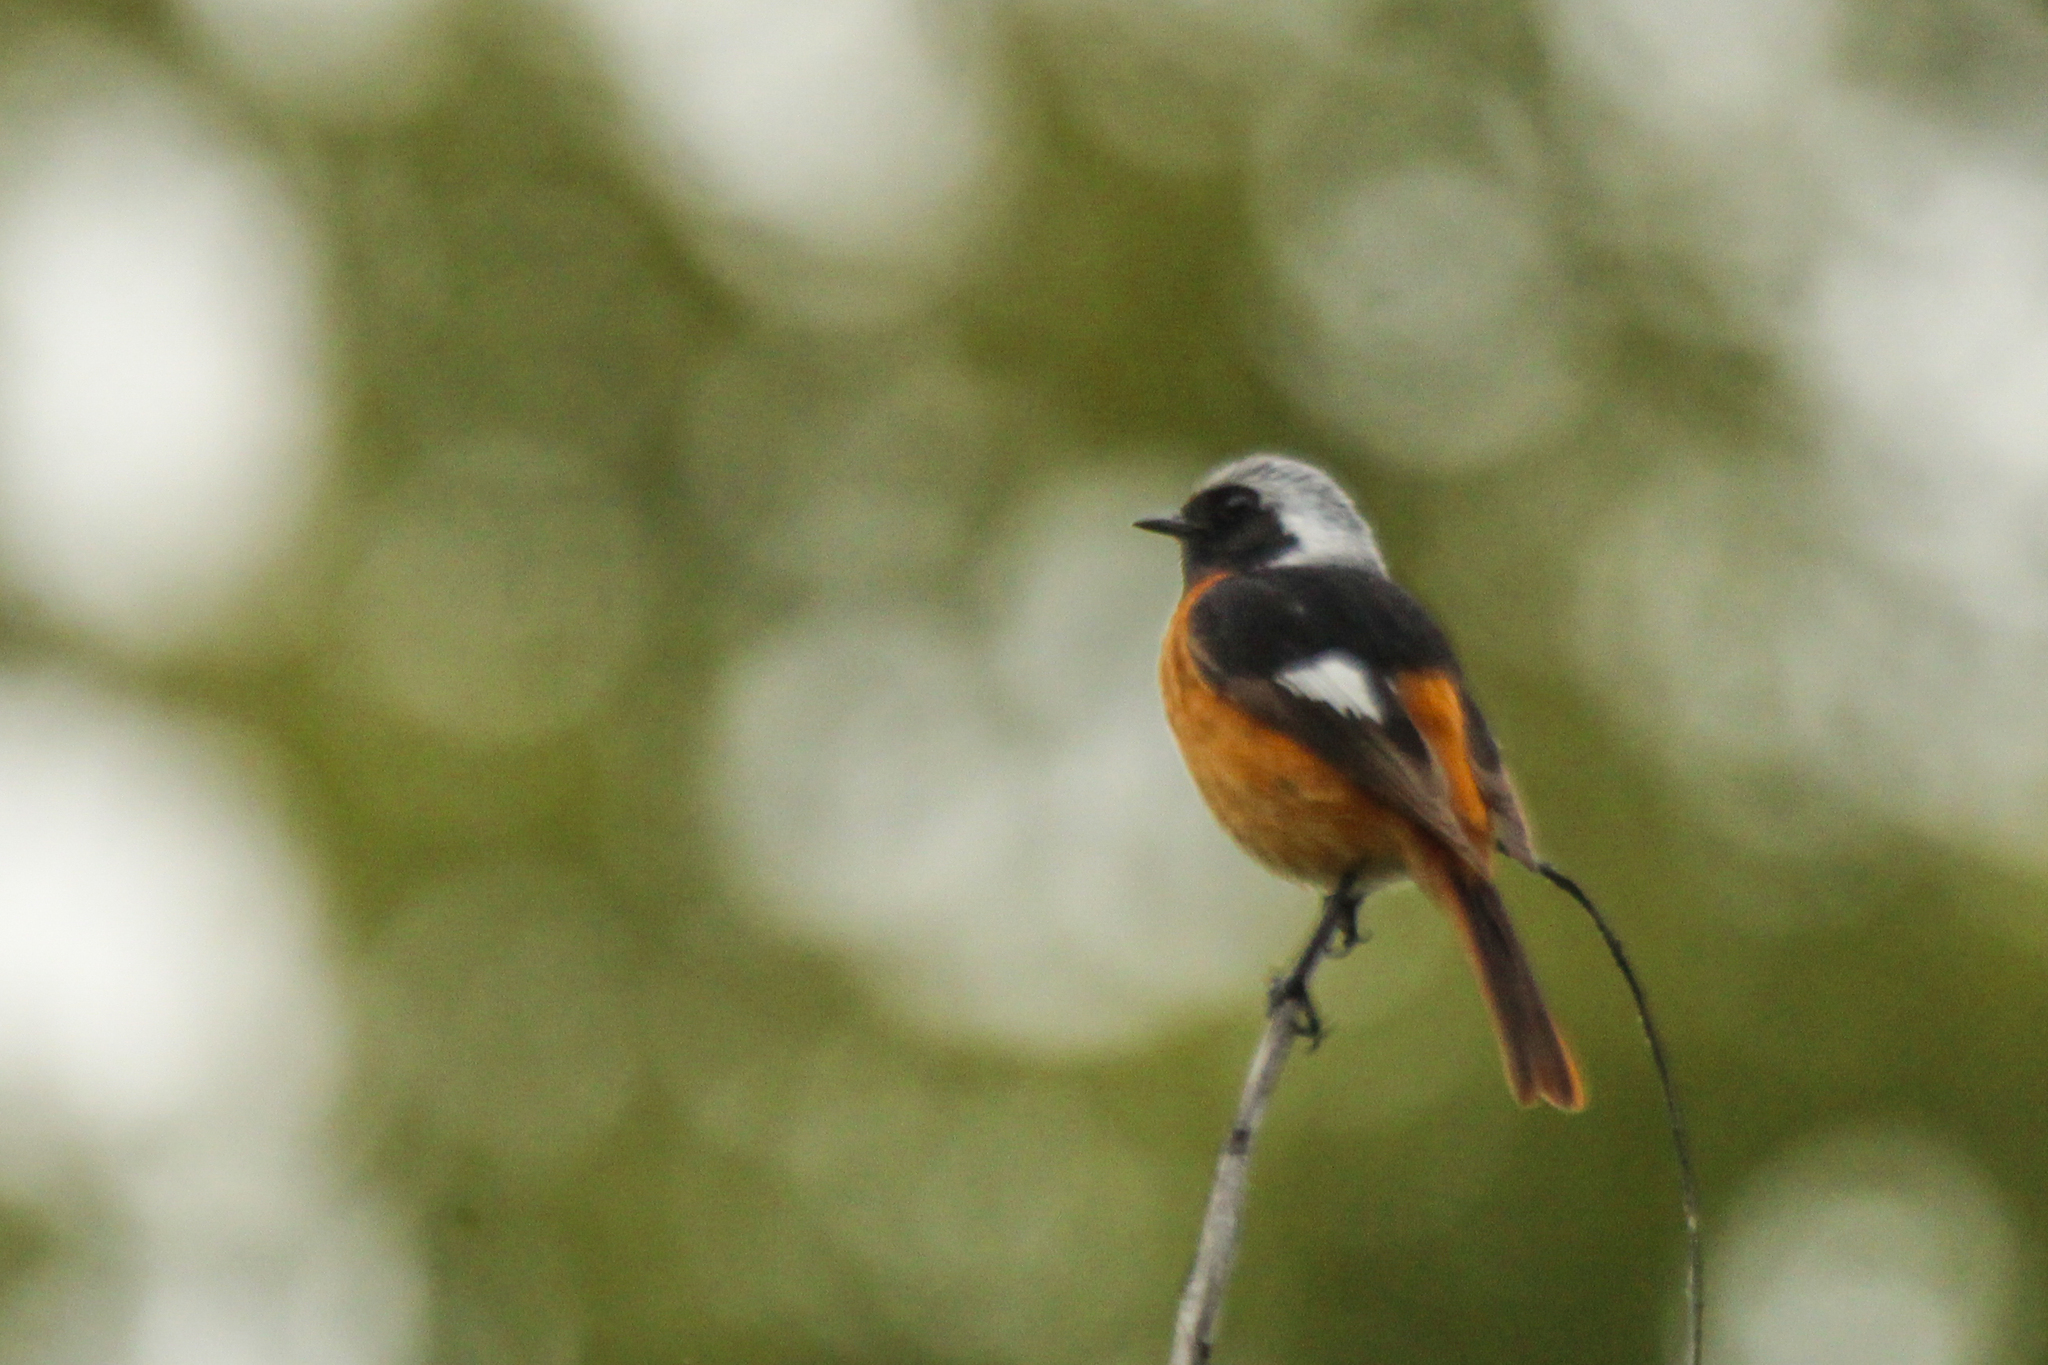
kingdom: Animalia
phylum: Chordata
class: Aves
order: Passeriformes
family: Muscicapidae
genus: Phoenicurus
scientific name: Phoenicurus auroreus
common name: Daurian redstart
